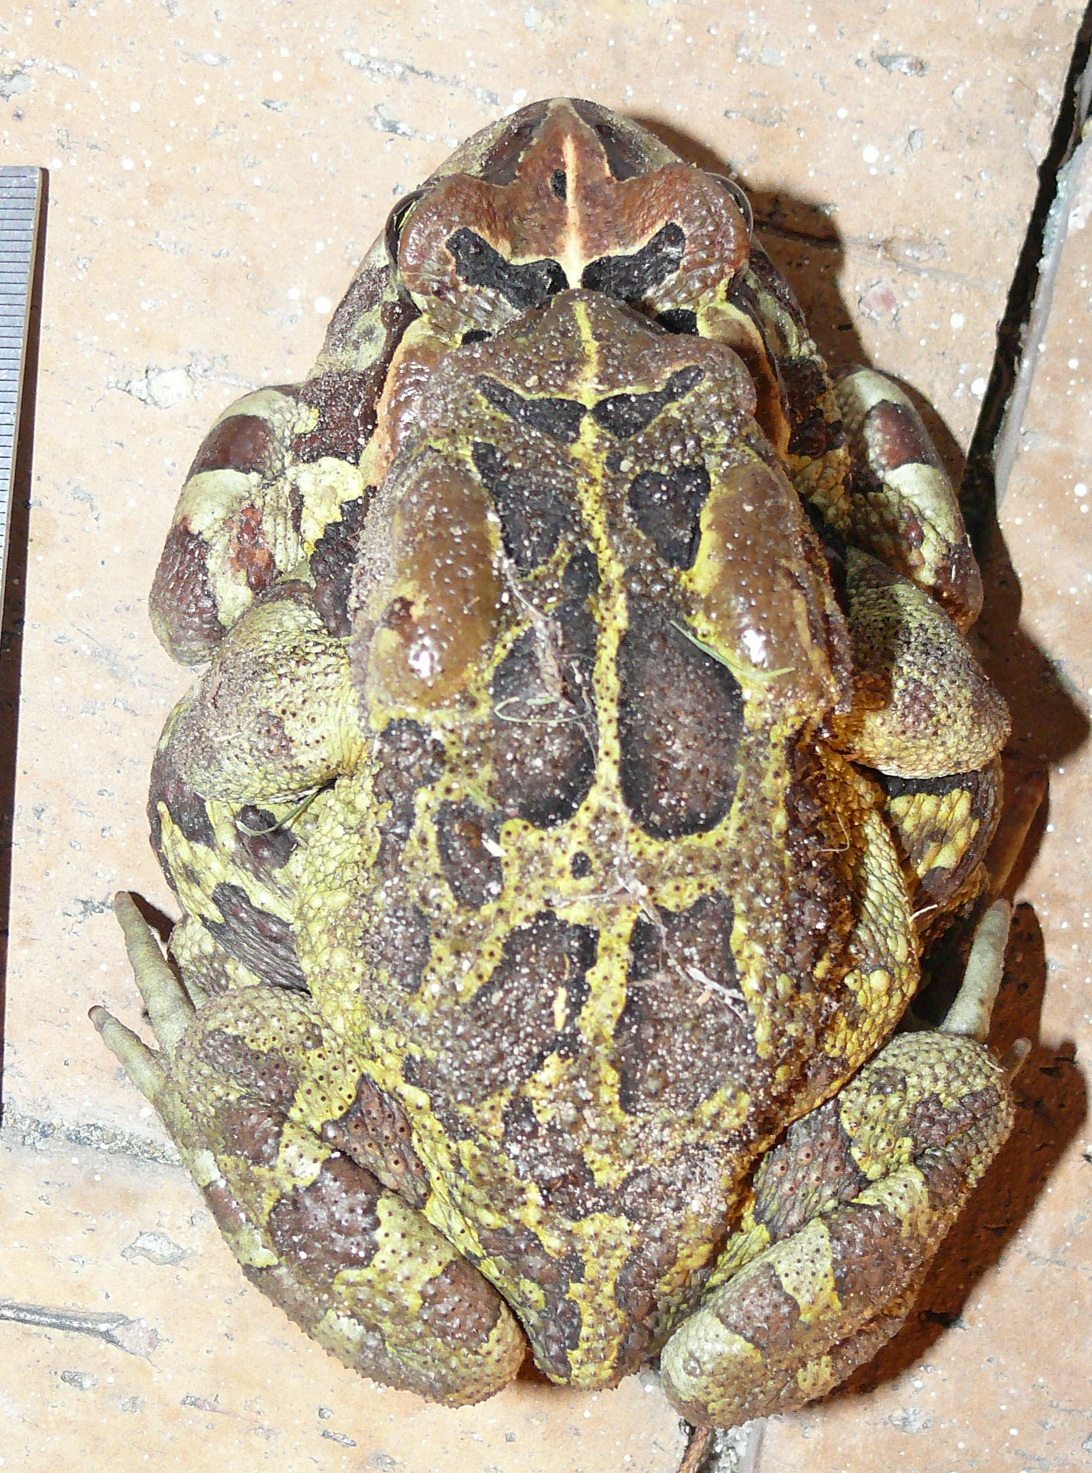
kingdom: Animalia
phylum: Chordata
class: Amphibia
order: Anura
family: Bufonidae
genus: Sclerophrys
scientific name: Sclerophrys pantherina
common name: Panther toad
